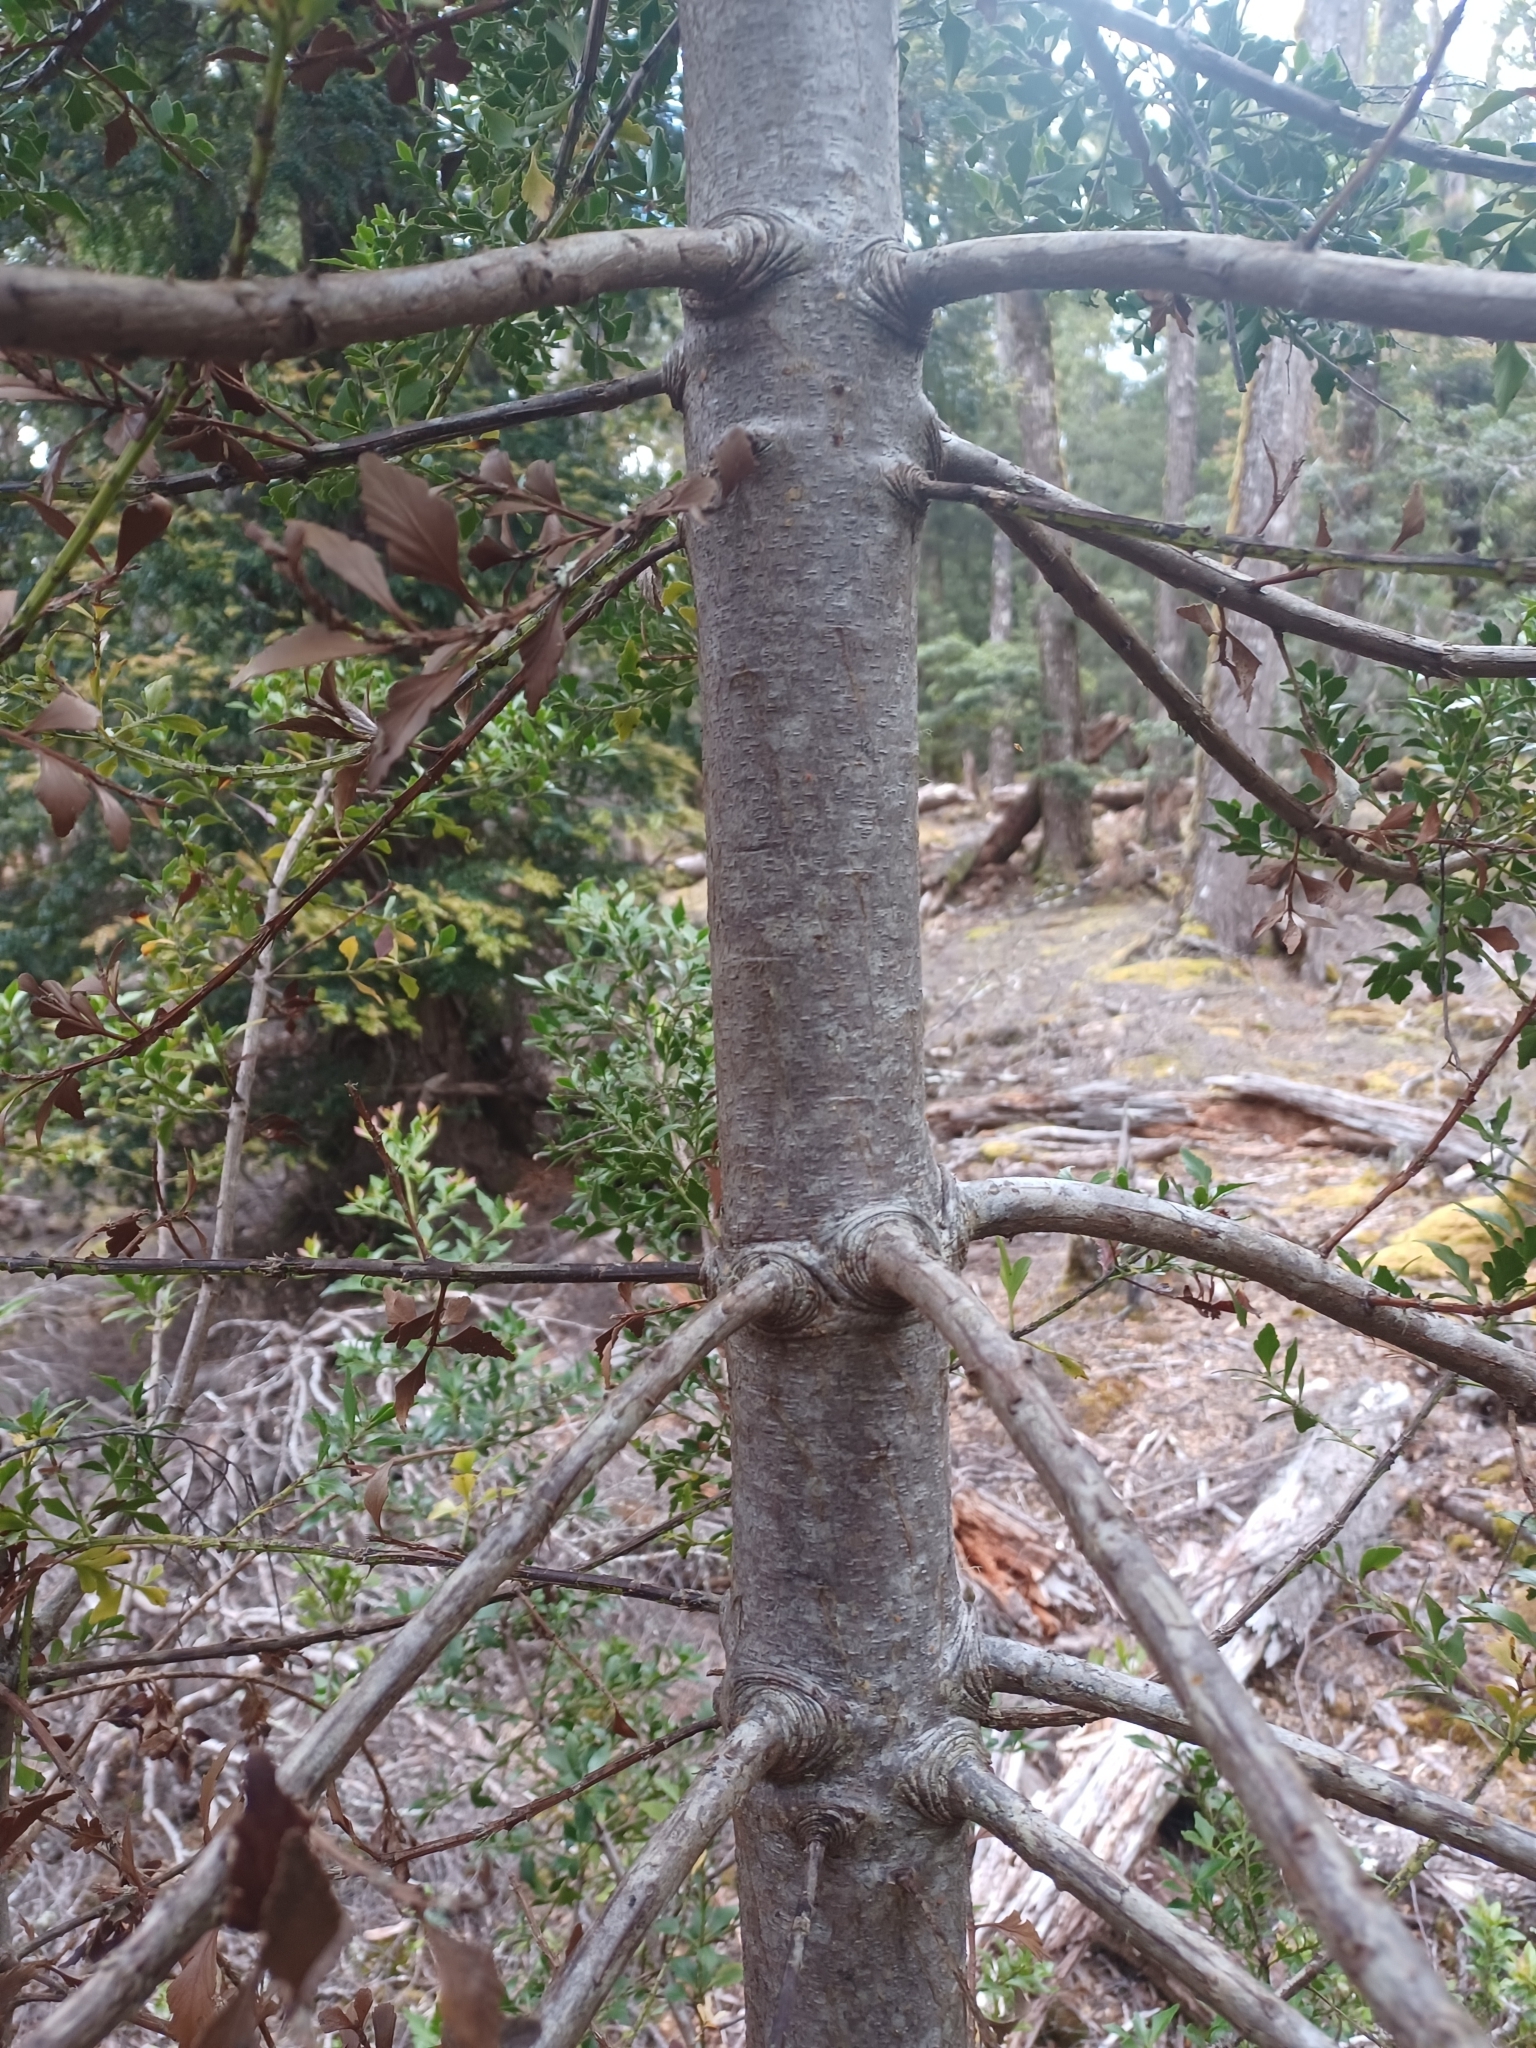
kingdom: Plantae
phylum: Tracheophyta
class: Pinopsida
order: Pinales
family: Phyllocladaceae
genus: Phyllocladus
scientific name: Phyllocladus aspleniifolius
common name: Celery-top pine
